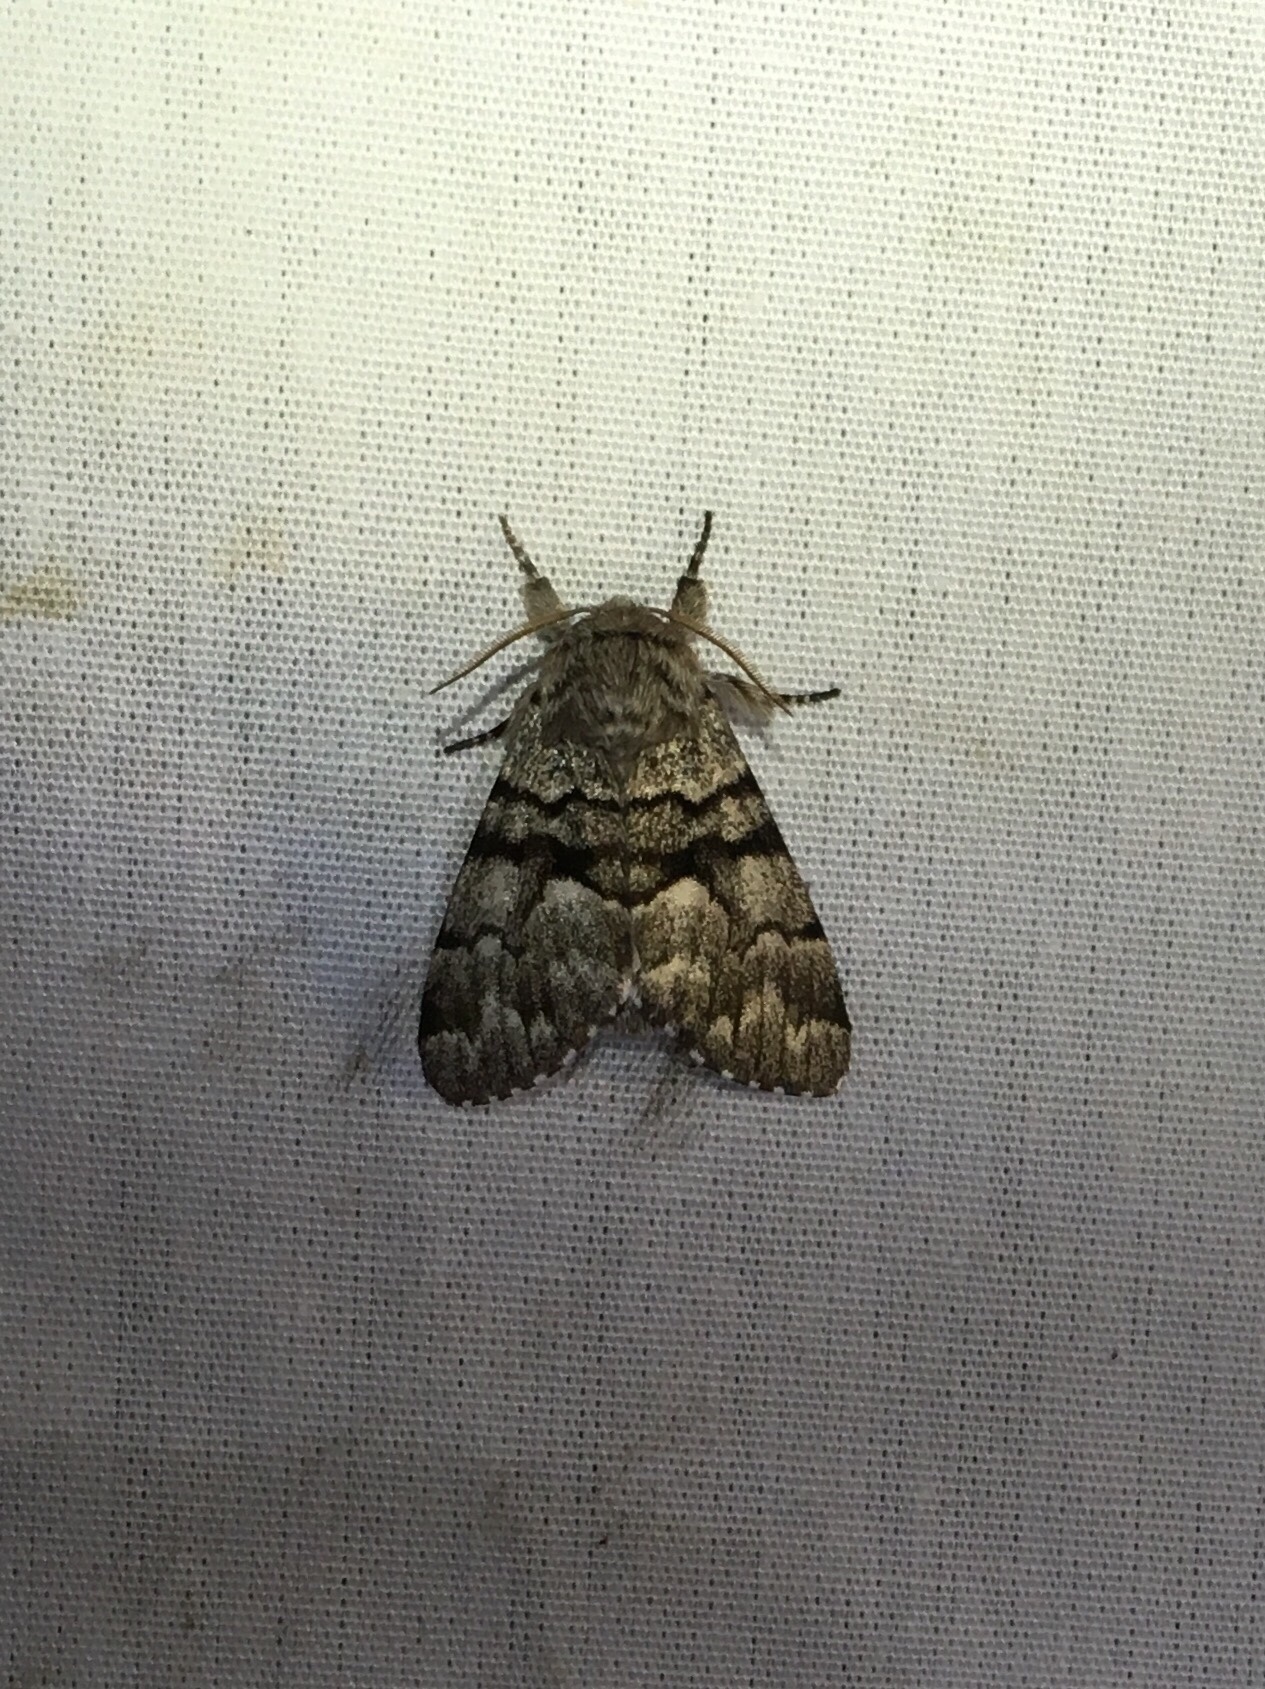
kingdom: Animalia
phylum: Arthropoda
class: Insecta
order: Lepidoptera
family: Noctuidae
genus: Panthea
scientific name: Panthea furcilla
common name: Eastern panthea moth
